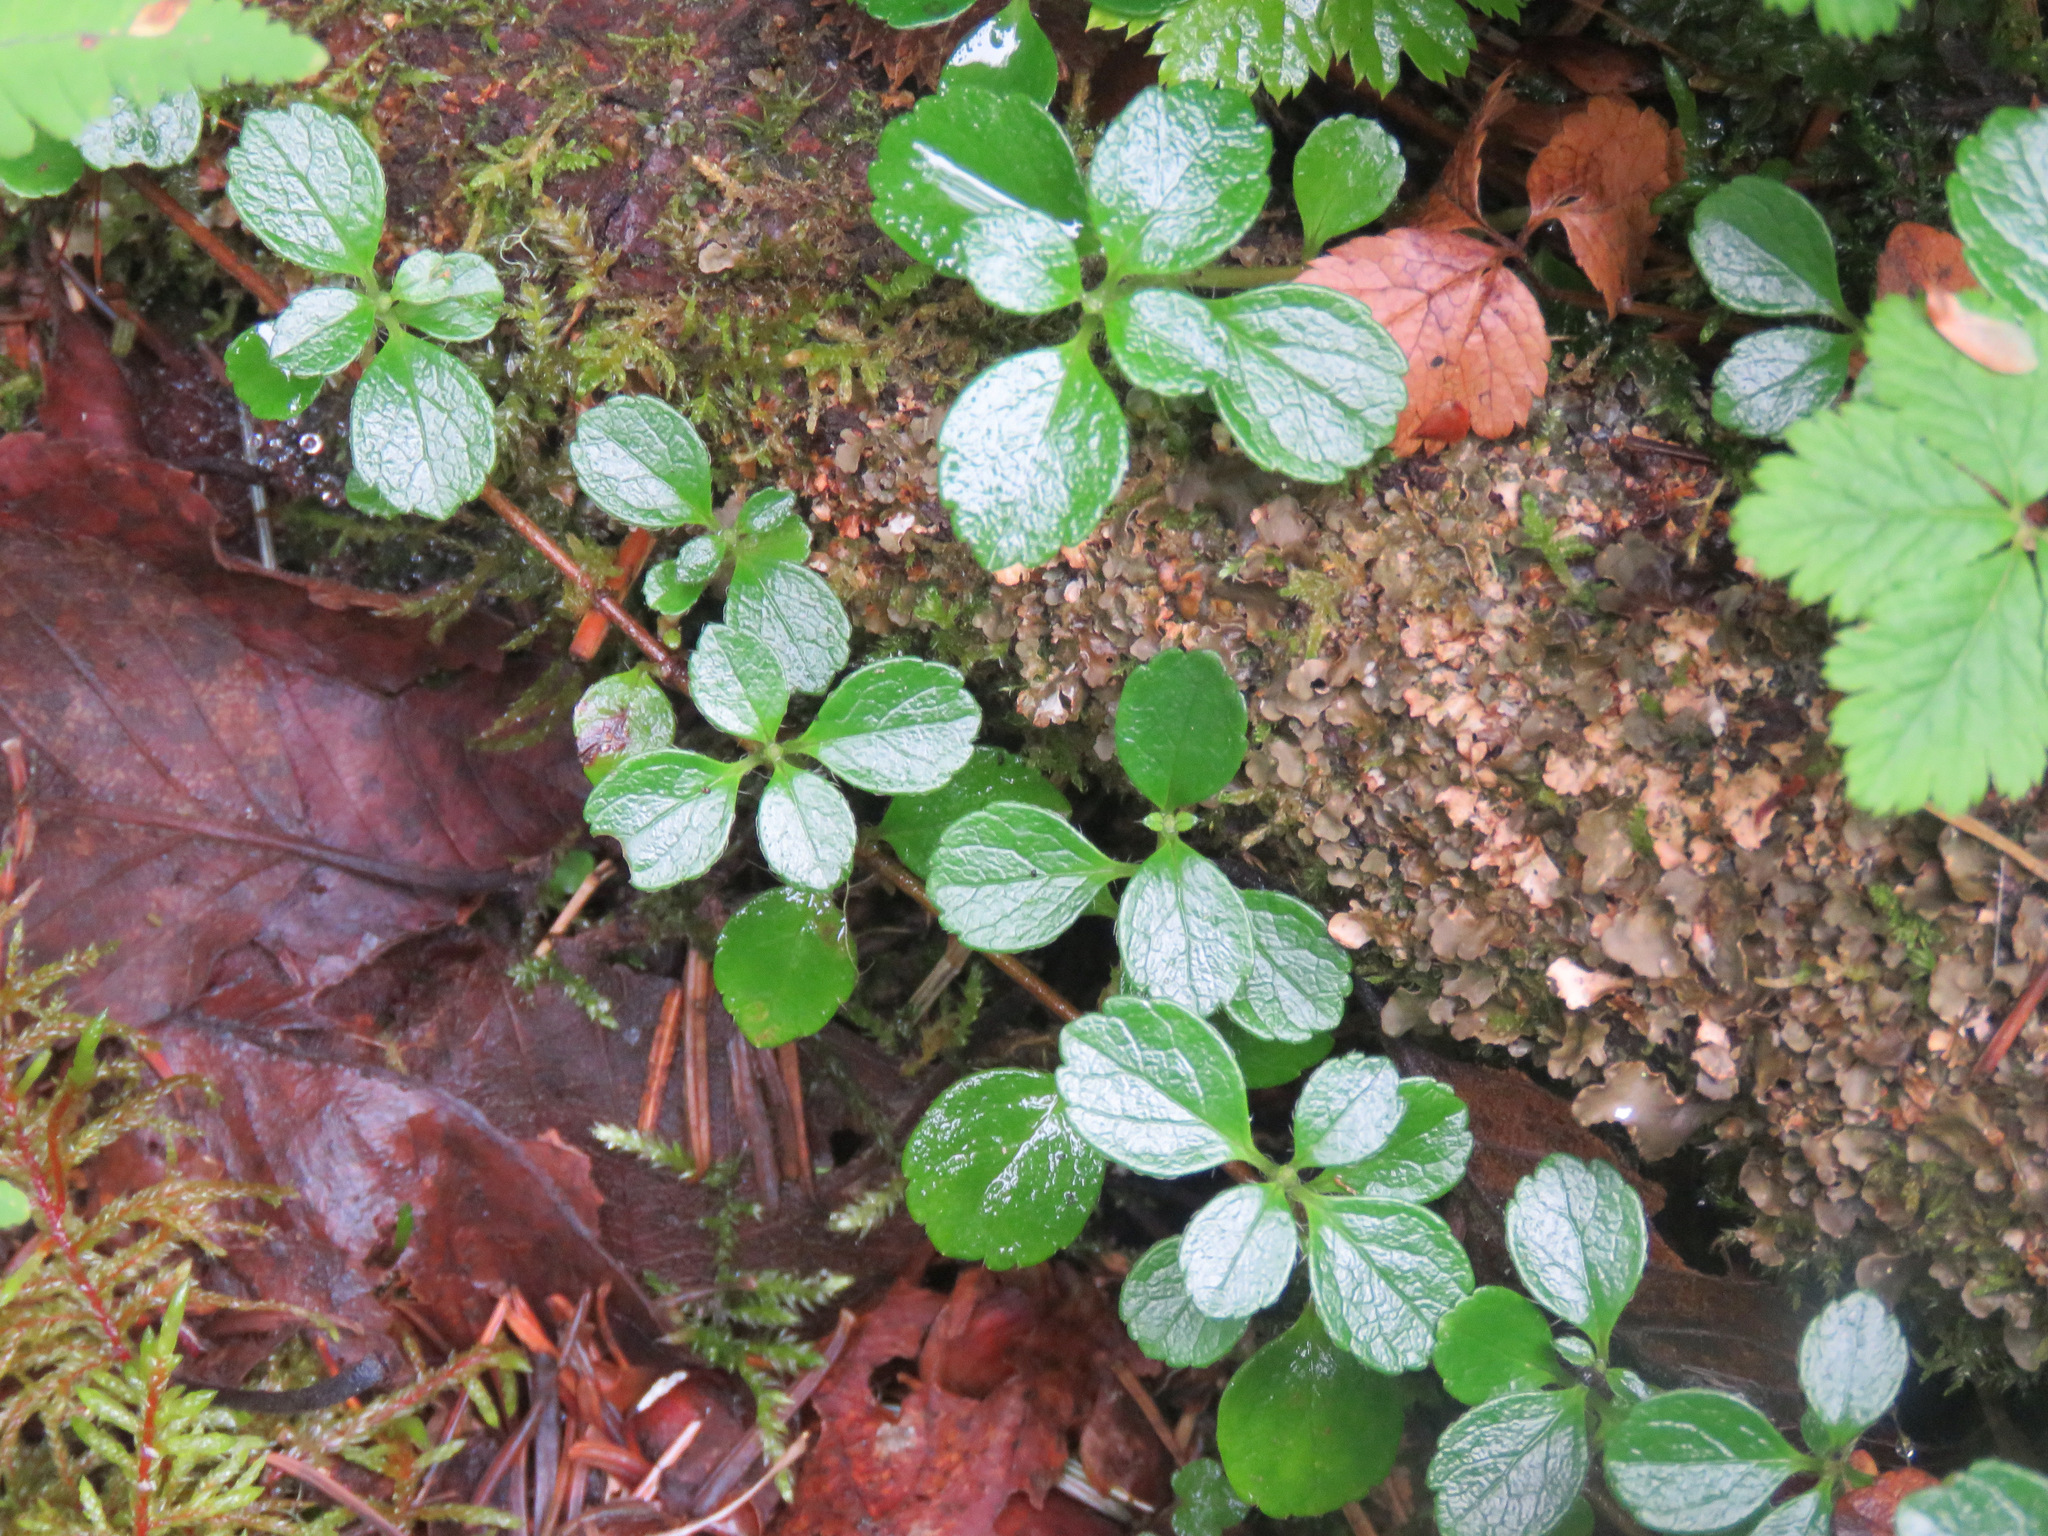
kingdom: Plantae
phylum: Tracheophyta
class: Magnoliopsida
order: Dipsacales
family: Caprifoliaceae
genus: Linnaea
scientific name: Linnaea borealis
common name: Twinflower
